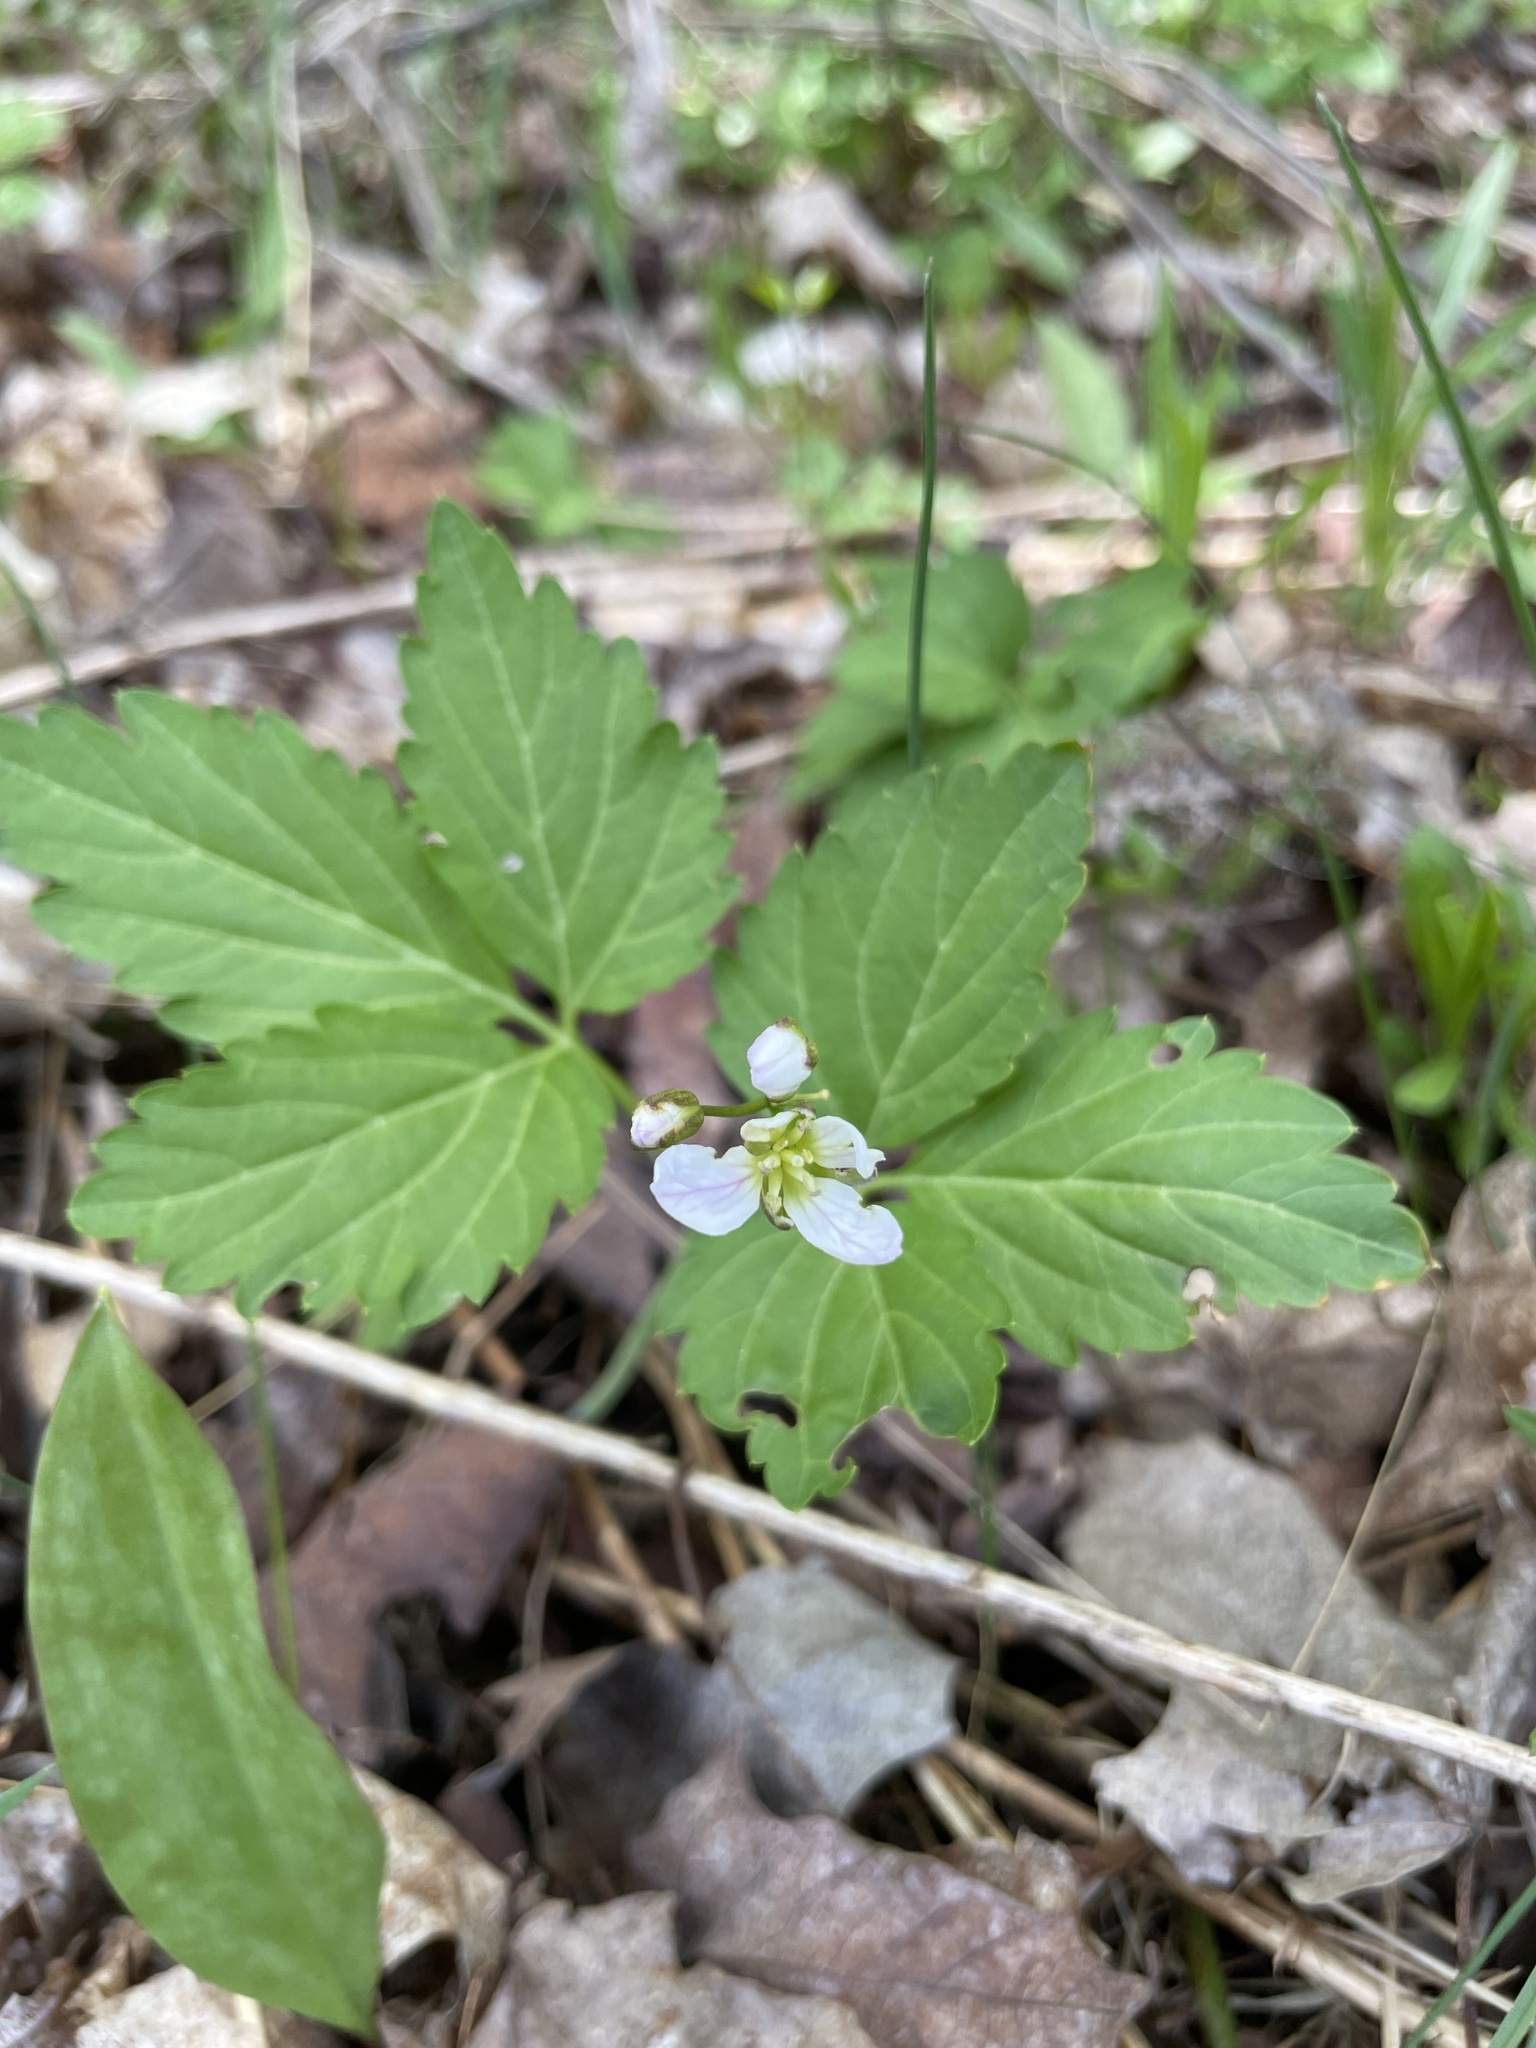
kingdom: Plantae
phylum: Tracheophyta
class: Magnoliopsida
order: Brassicales
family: Brassicaceae
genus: Cardamine
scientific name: Cardamine diphylla
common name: Broad-leaved toothwort
